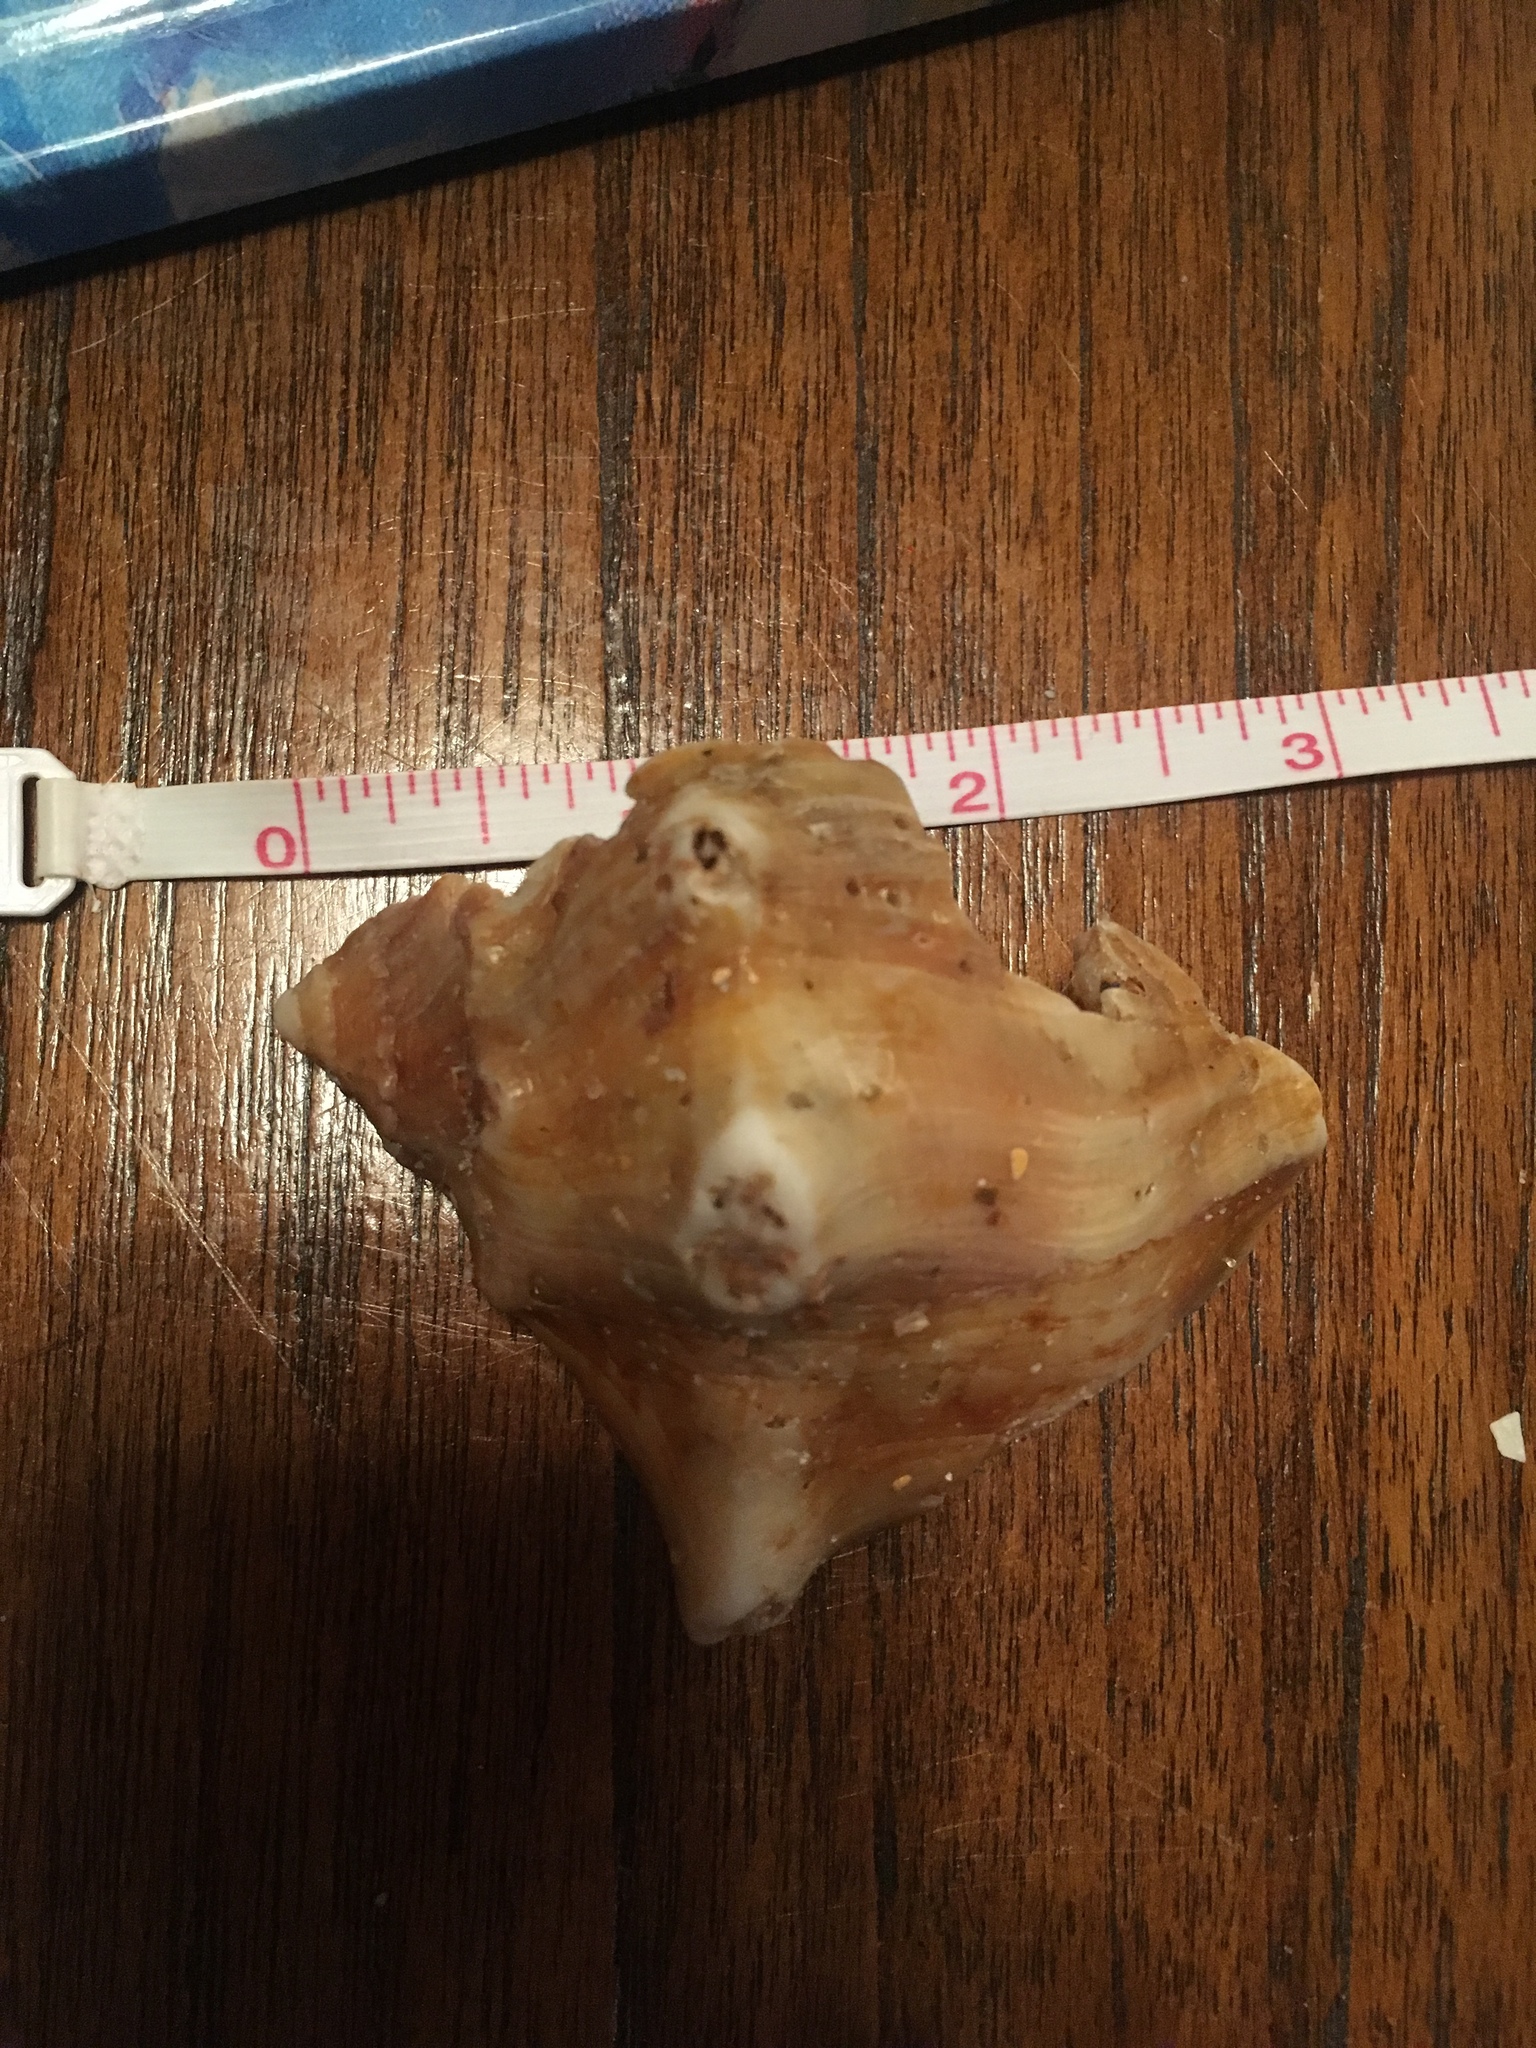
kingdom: Animalia
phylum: Mollusca
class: Gastropoda
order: Neogastropoda
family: Busyconidae
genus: Busycon
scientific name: Busycon carica
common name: Knobbed whelk
